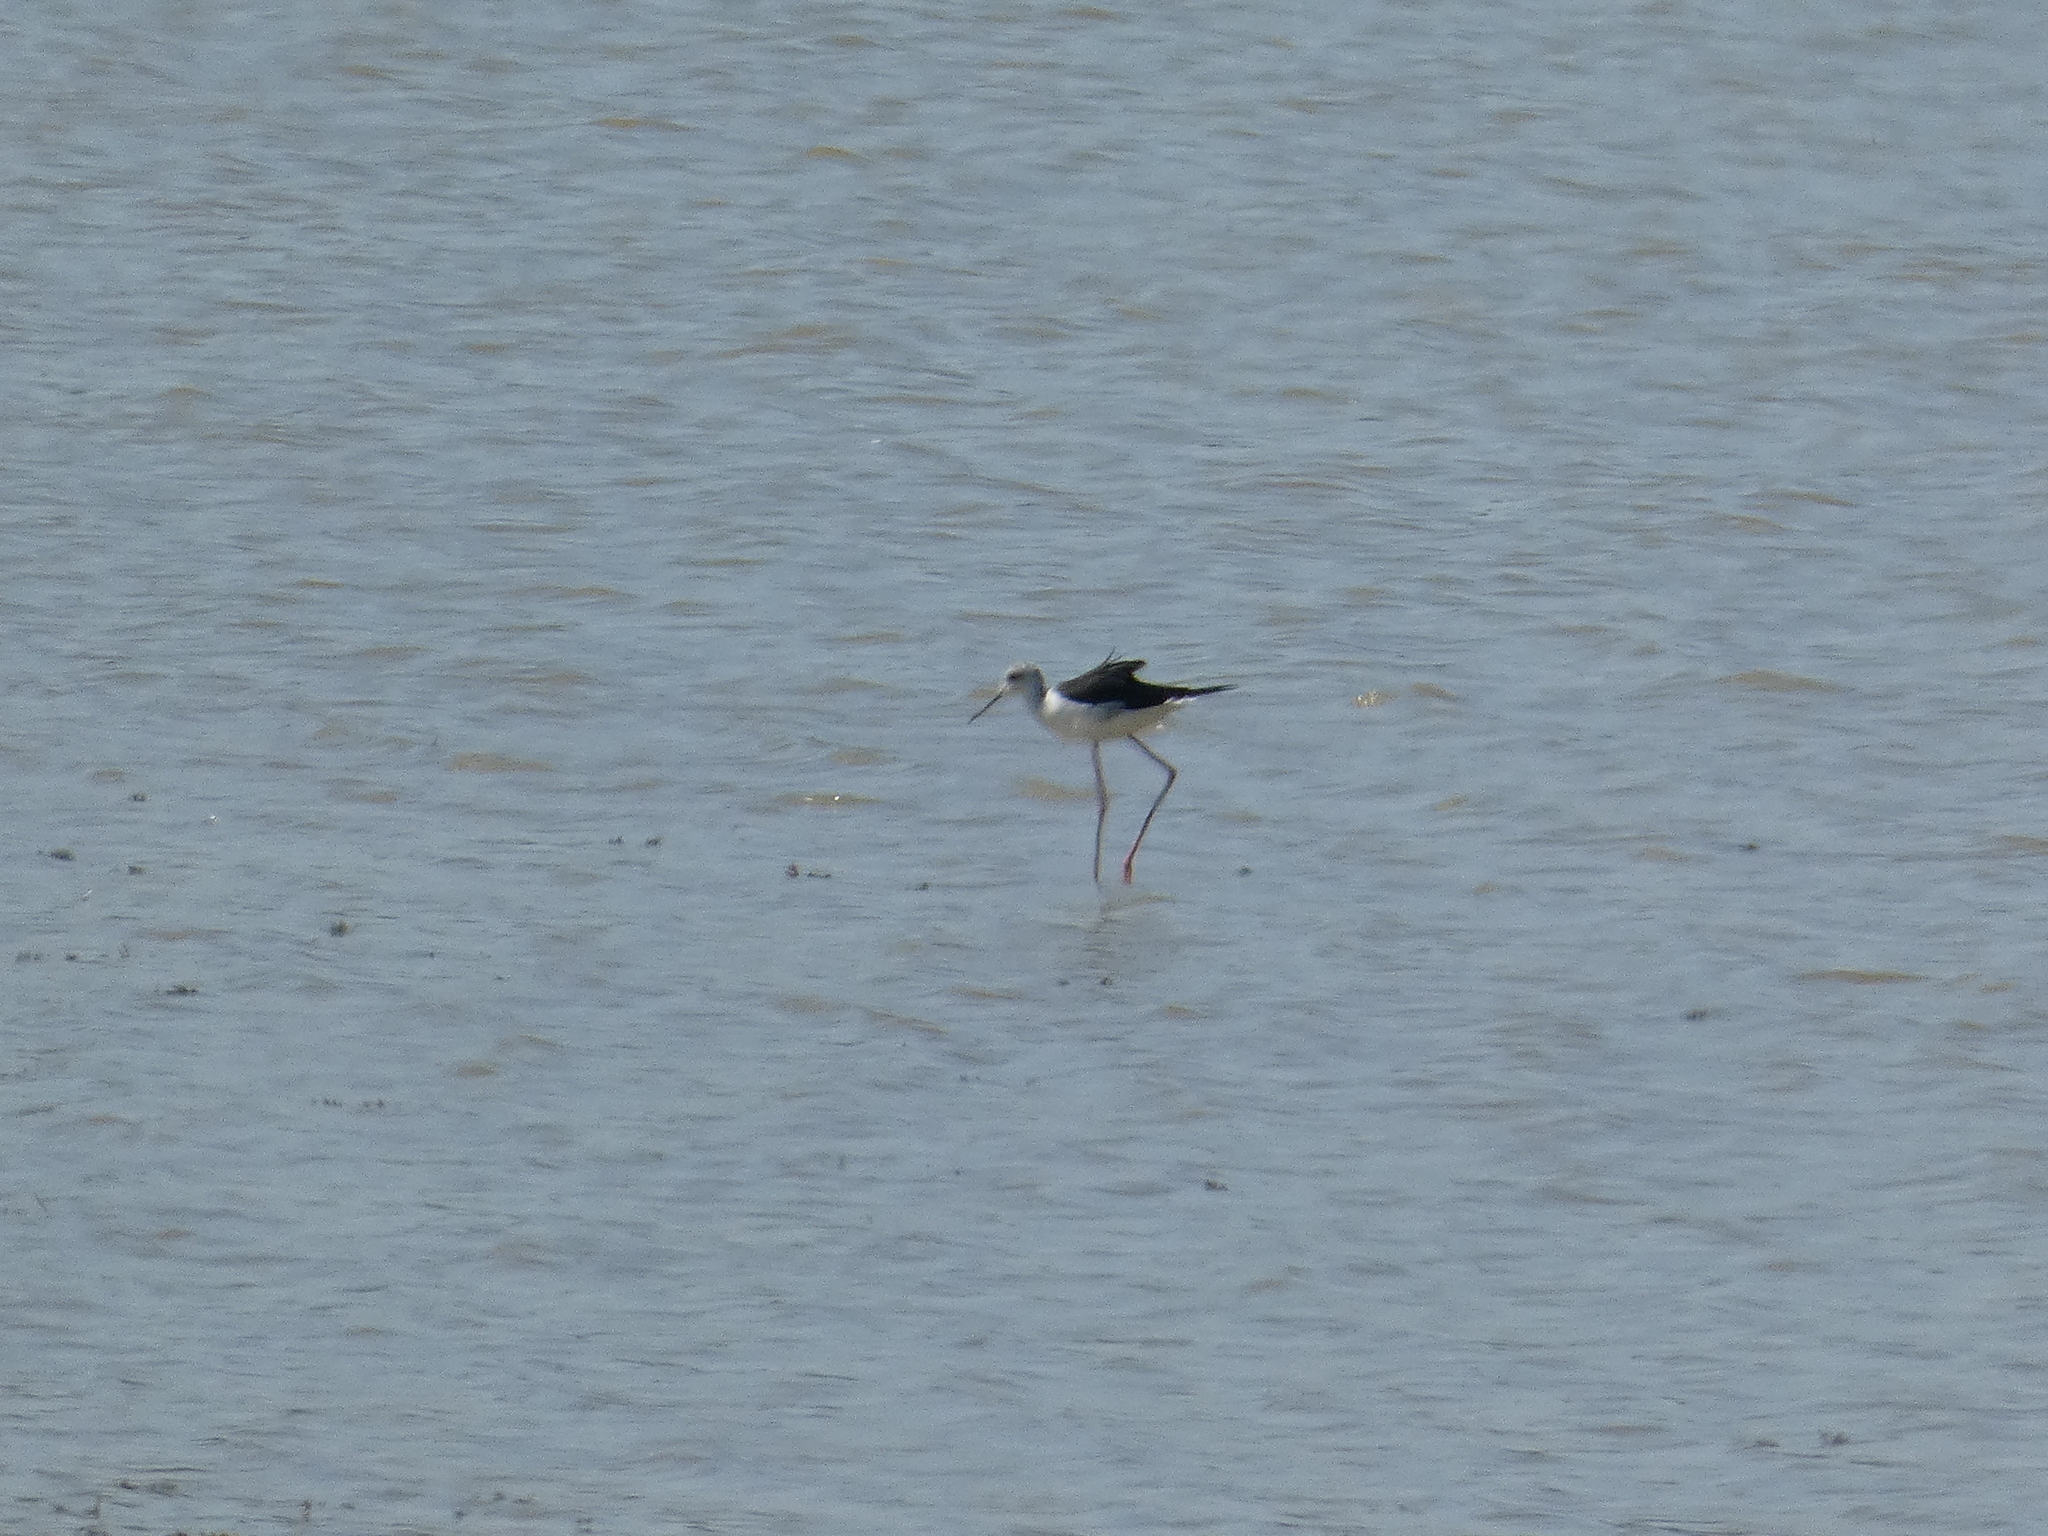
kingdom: Animalia
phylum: Chordata
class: Aves
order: Charadriiformes
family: Recurvirostridae
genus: Himantopus
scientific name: Himantopus himantopus
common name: Black-winged stilt
